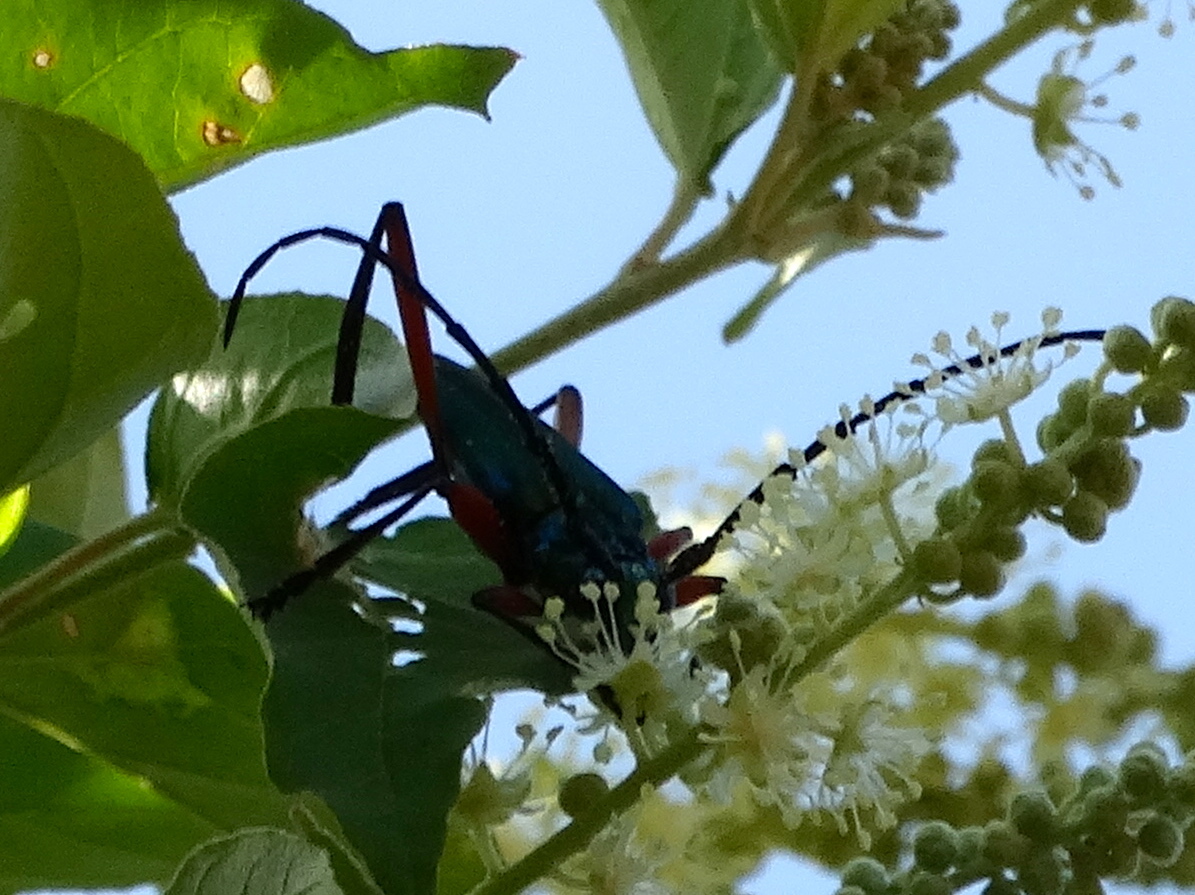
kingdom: Animalia
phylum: Arthropoda
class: Insecta
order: Coleoptera
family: Cerambycidae
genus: Plinthocoelium
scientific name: Plinthocoelium chilensis
